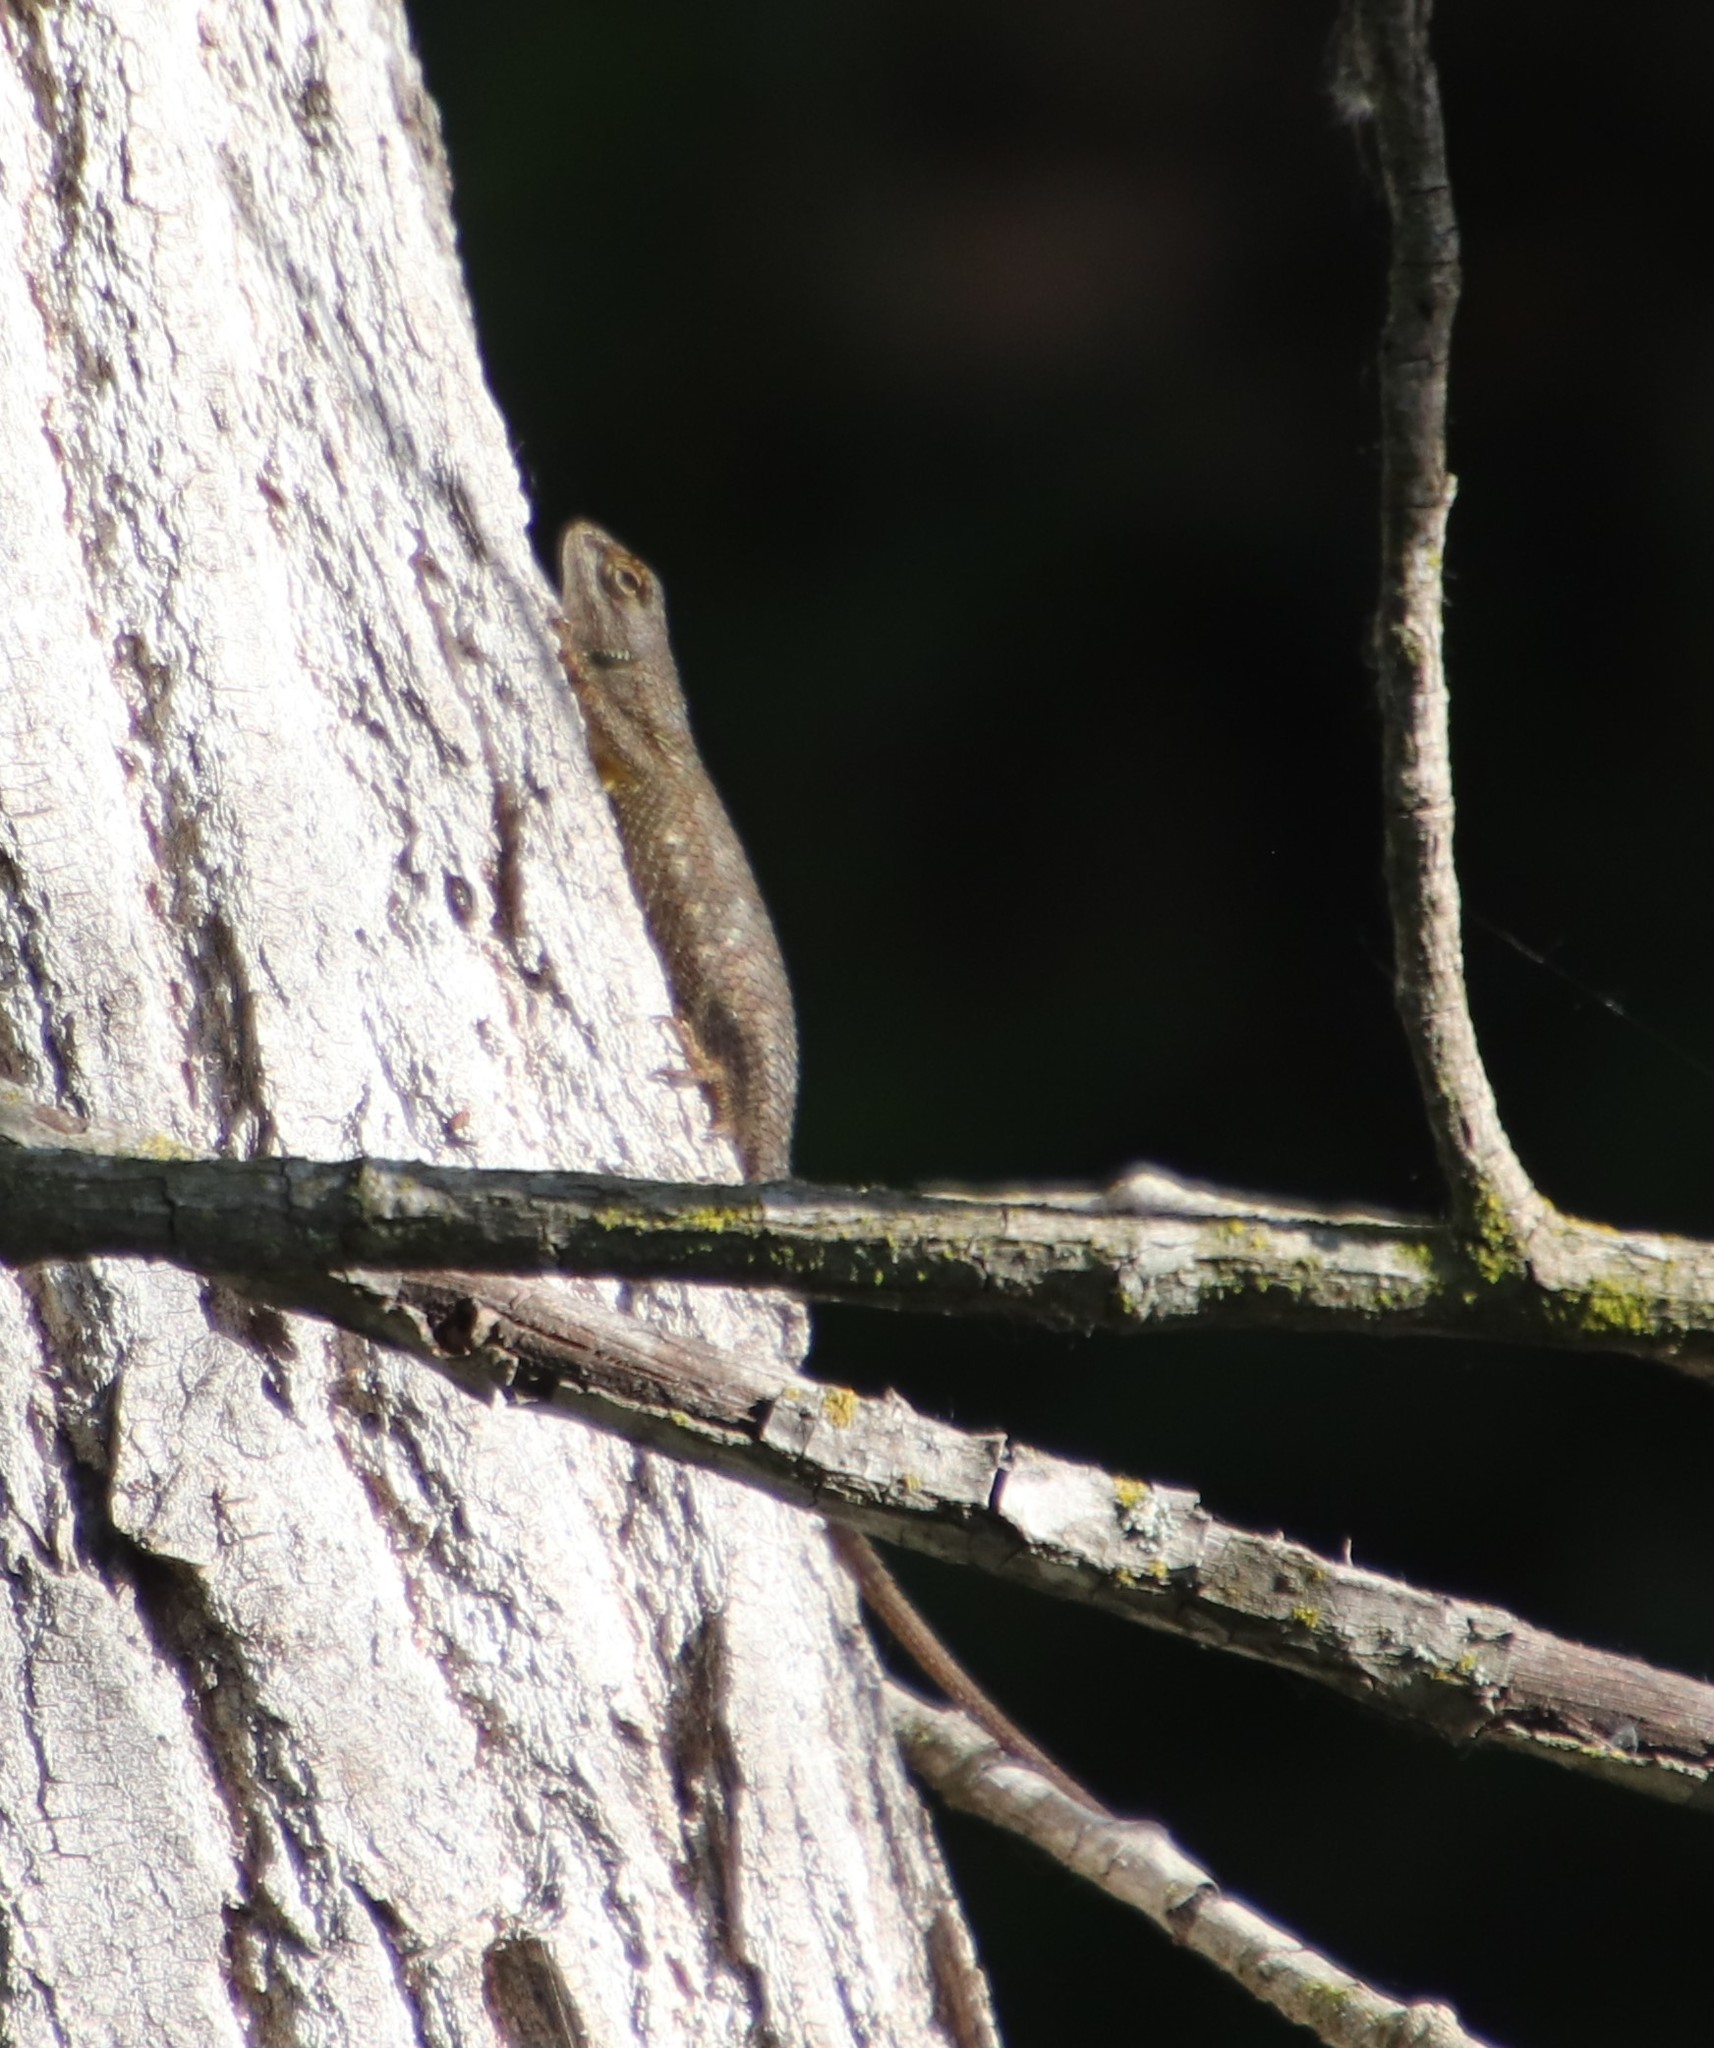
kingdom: Animalia
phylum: Chordata
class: Squamata
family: Phrynosomatidae
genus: Sceloporus
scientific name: Sceloporus occidentalis
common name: Western fence lizard
